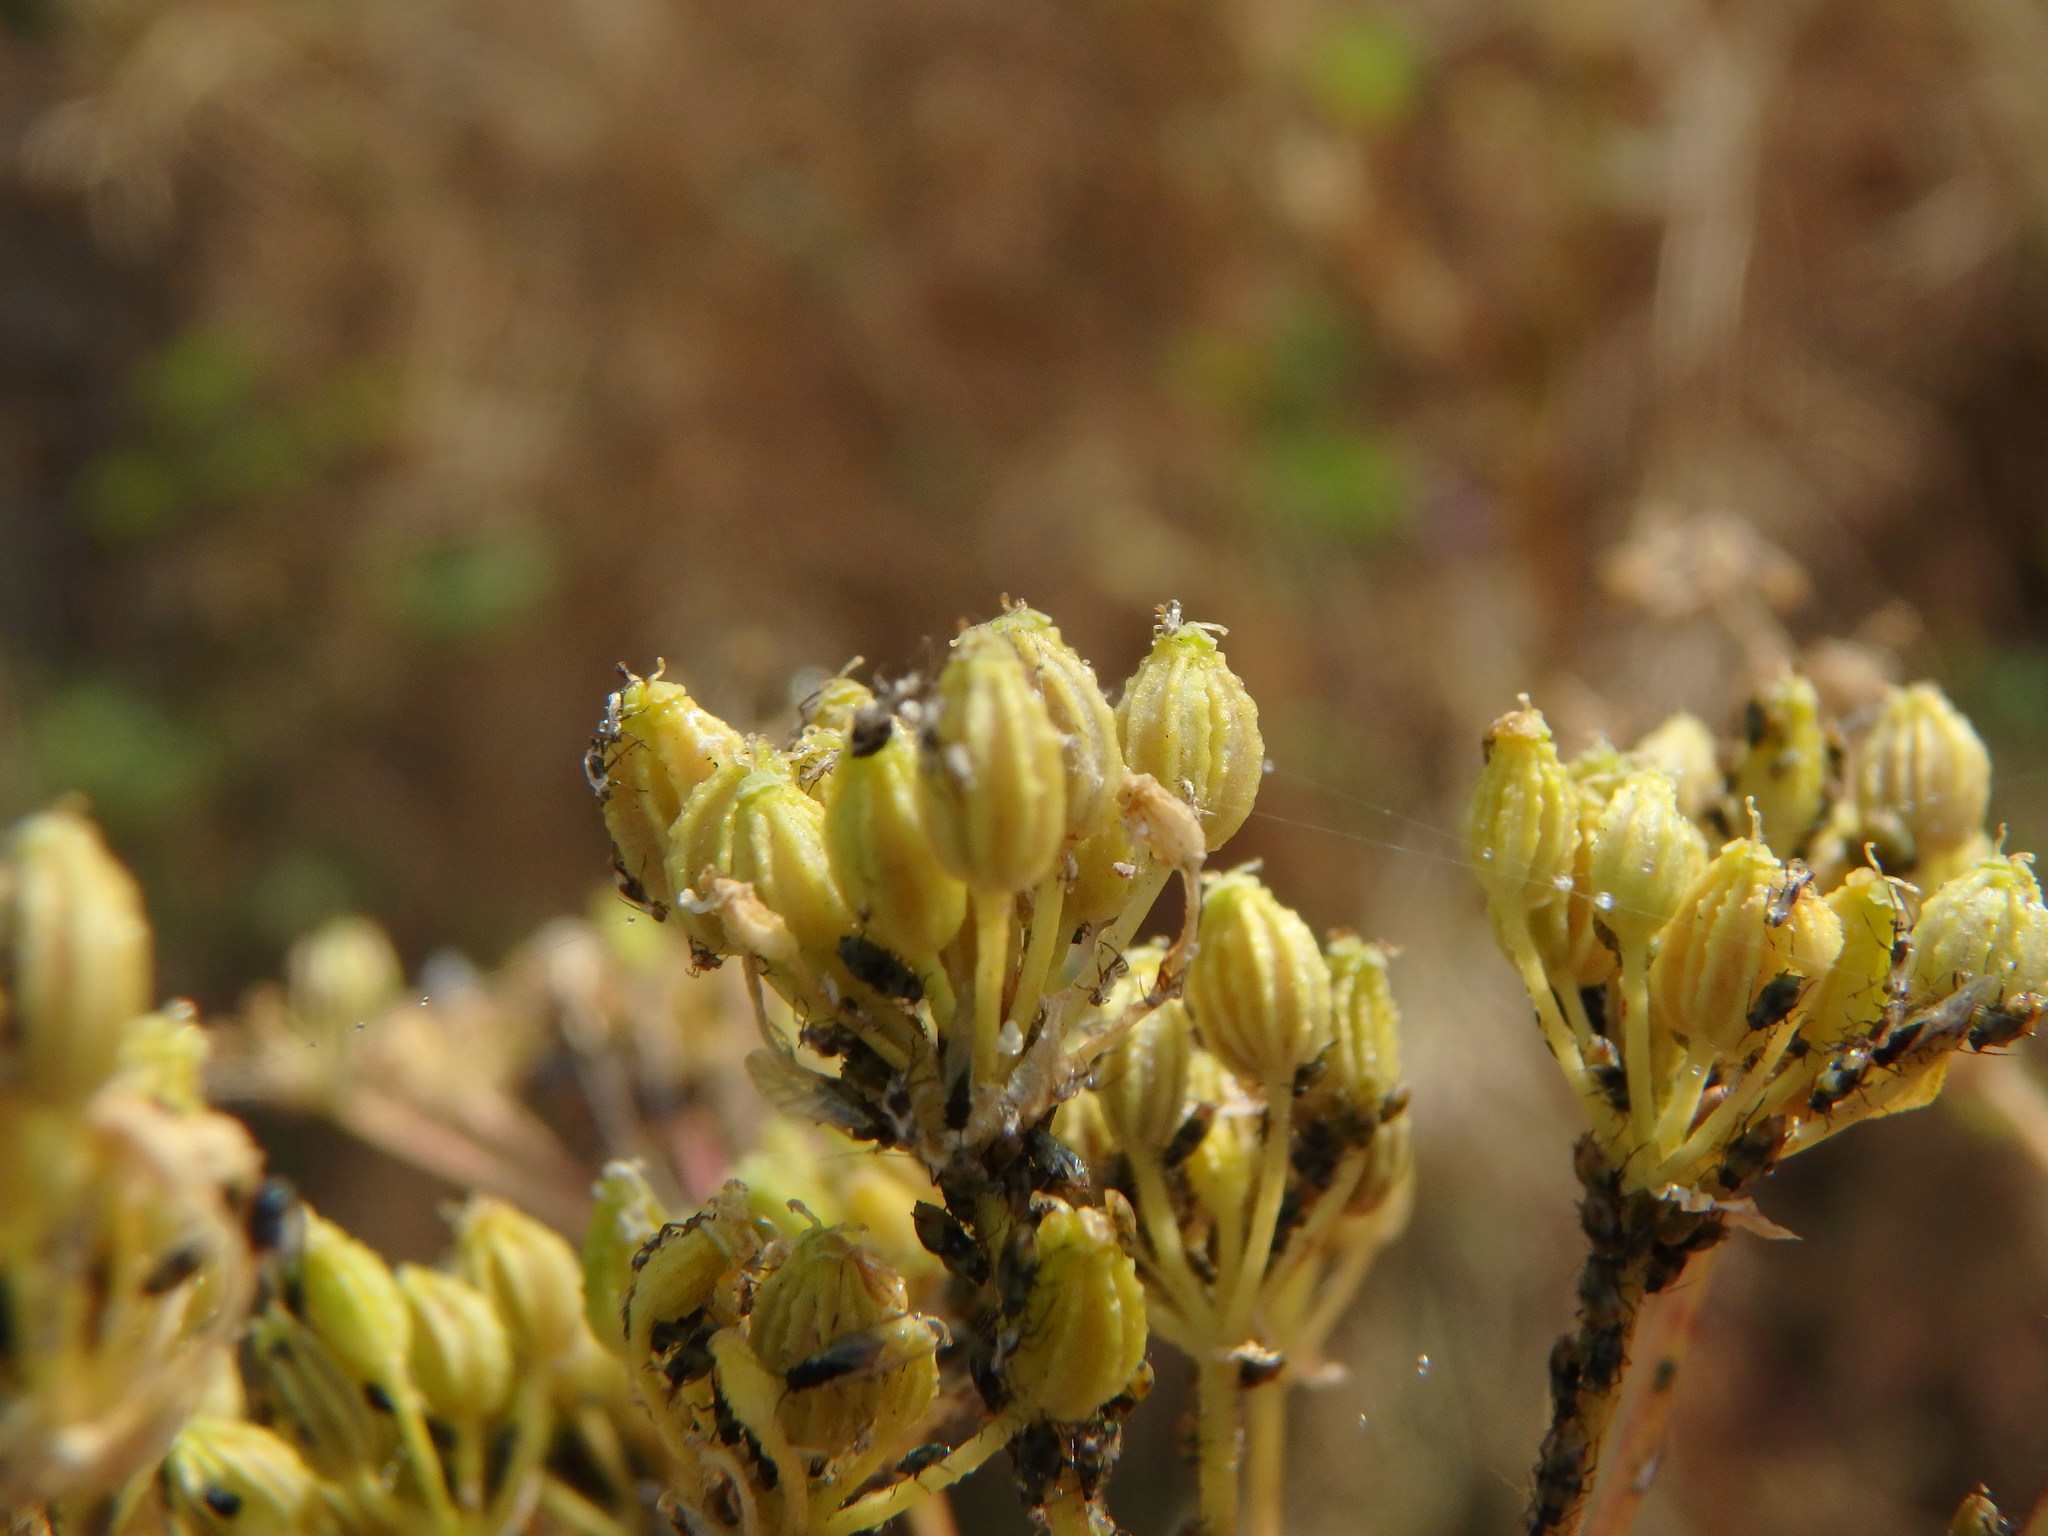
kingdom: Plantae
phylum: Tracheophyta
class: Magnoliopsida
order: Apiales
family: Apiaceae
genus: Conium
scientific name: Conium maculatum
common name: Hemlock
